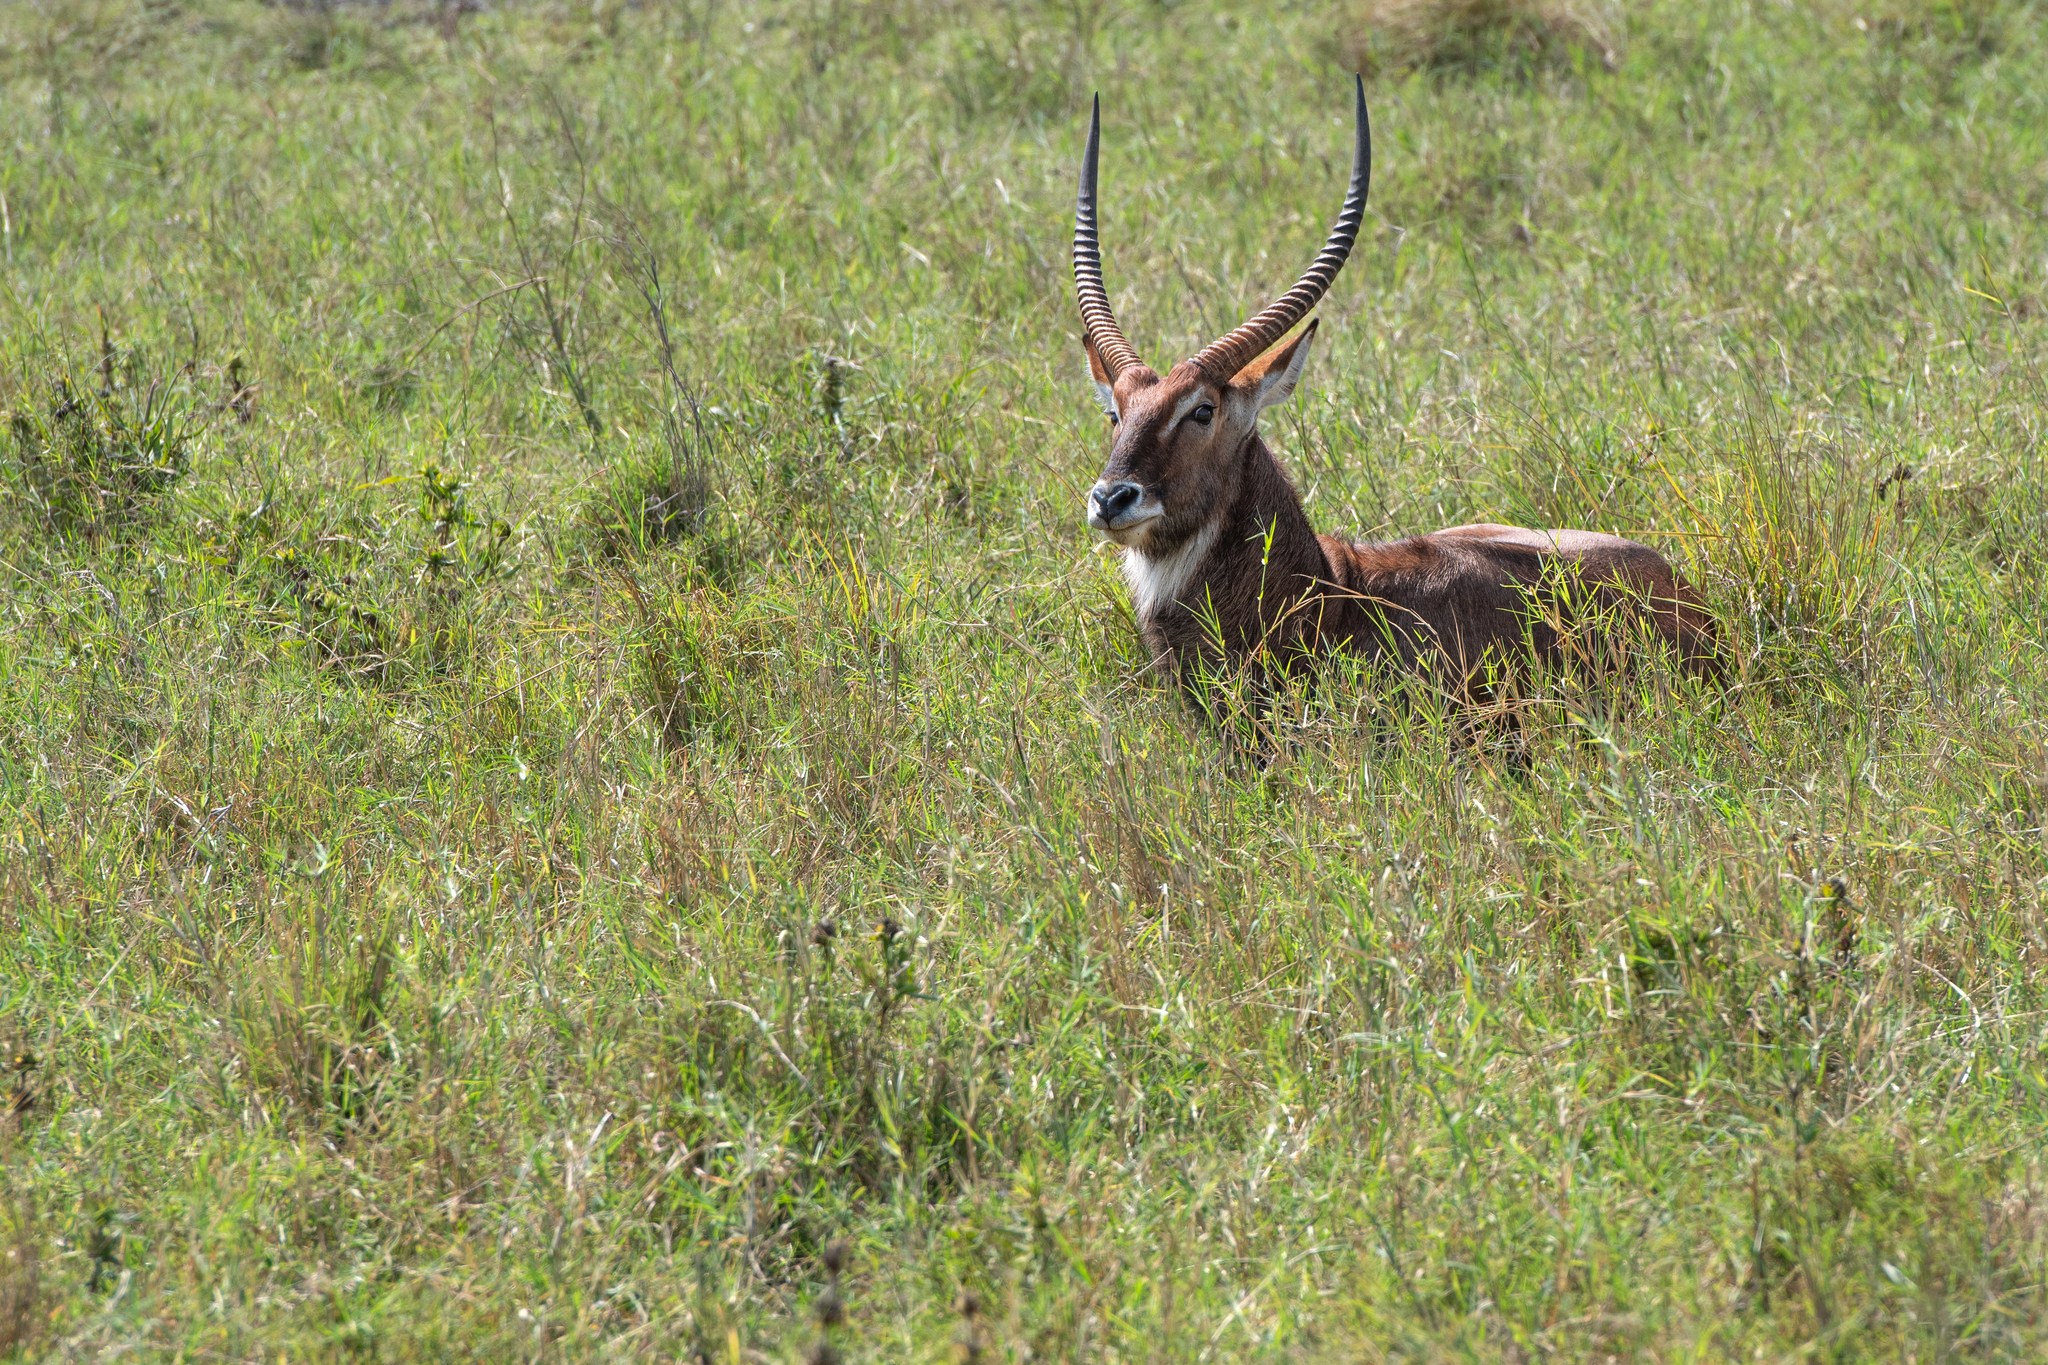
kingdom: Animalia
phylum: Chordata
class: Mammalia
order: Artiodactyla
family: Bovidae
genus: Kobus
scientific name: Kobus ellipsiprymnus
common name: Waterbuck
